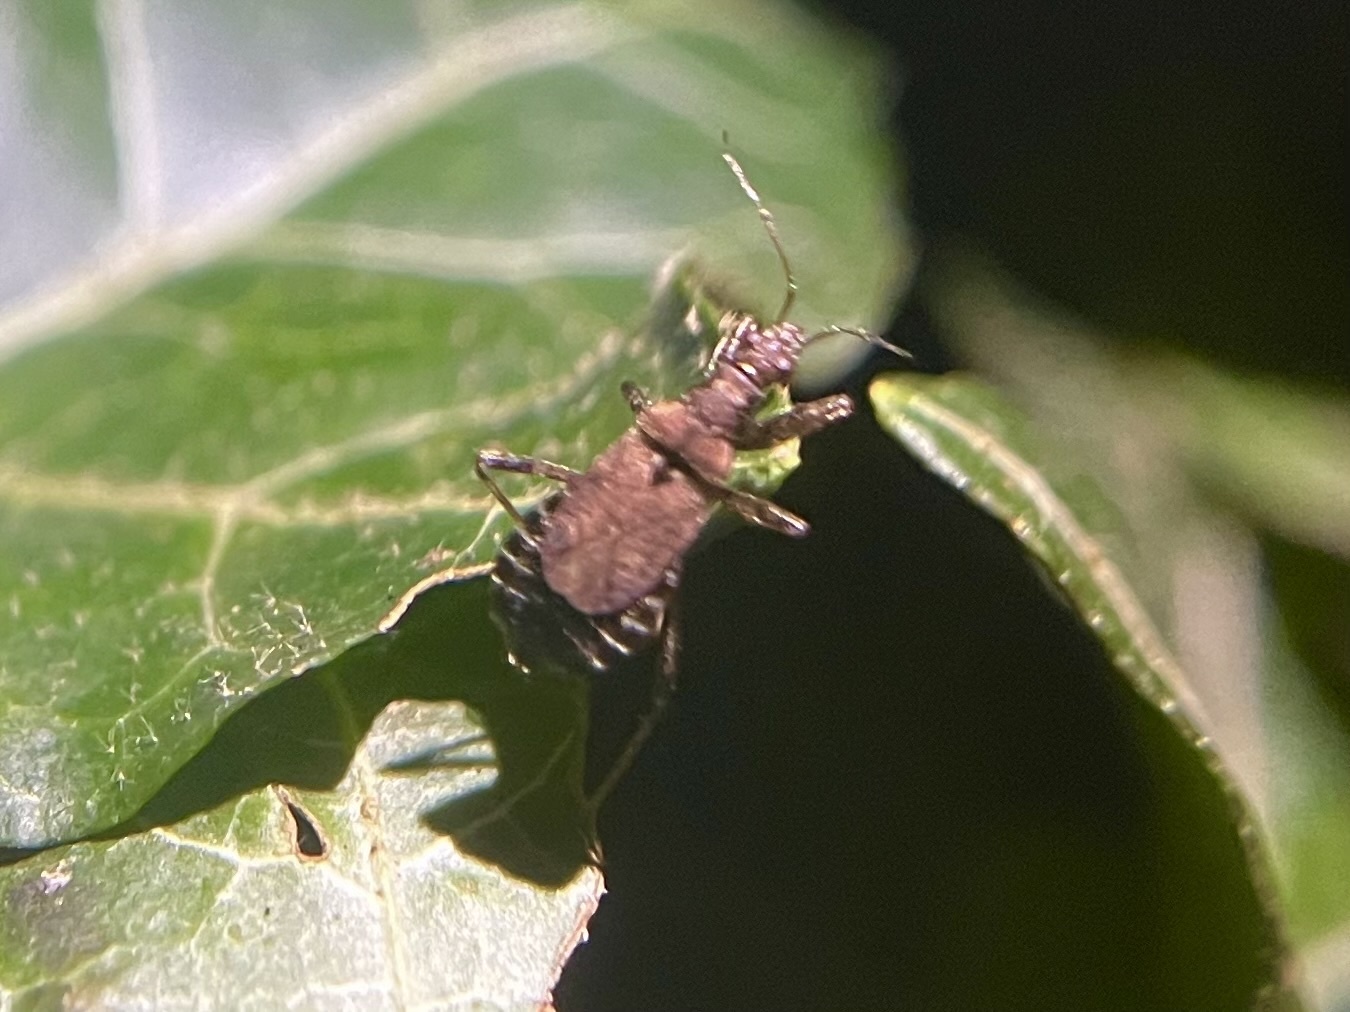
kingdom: Animalia
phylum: Arthropoda
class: Insecta
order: Hemiptera
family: Nabidae
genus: Himacerus
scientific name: Himacerus mirmicoides
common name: Ant damsel bug
